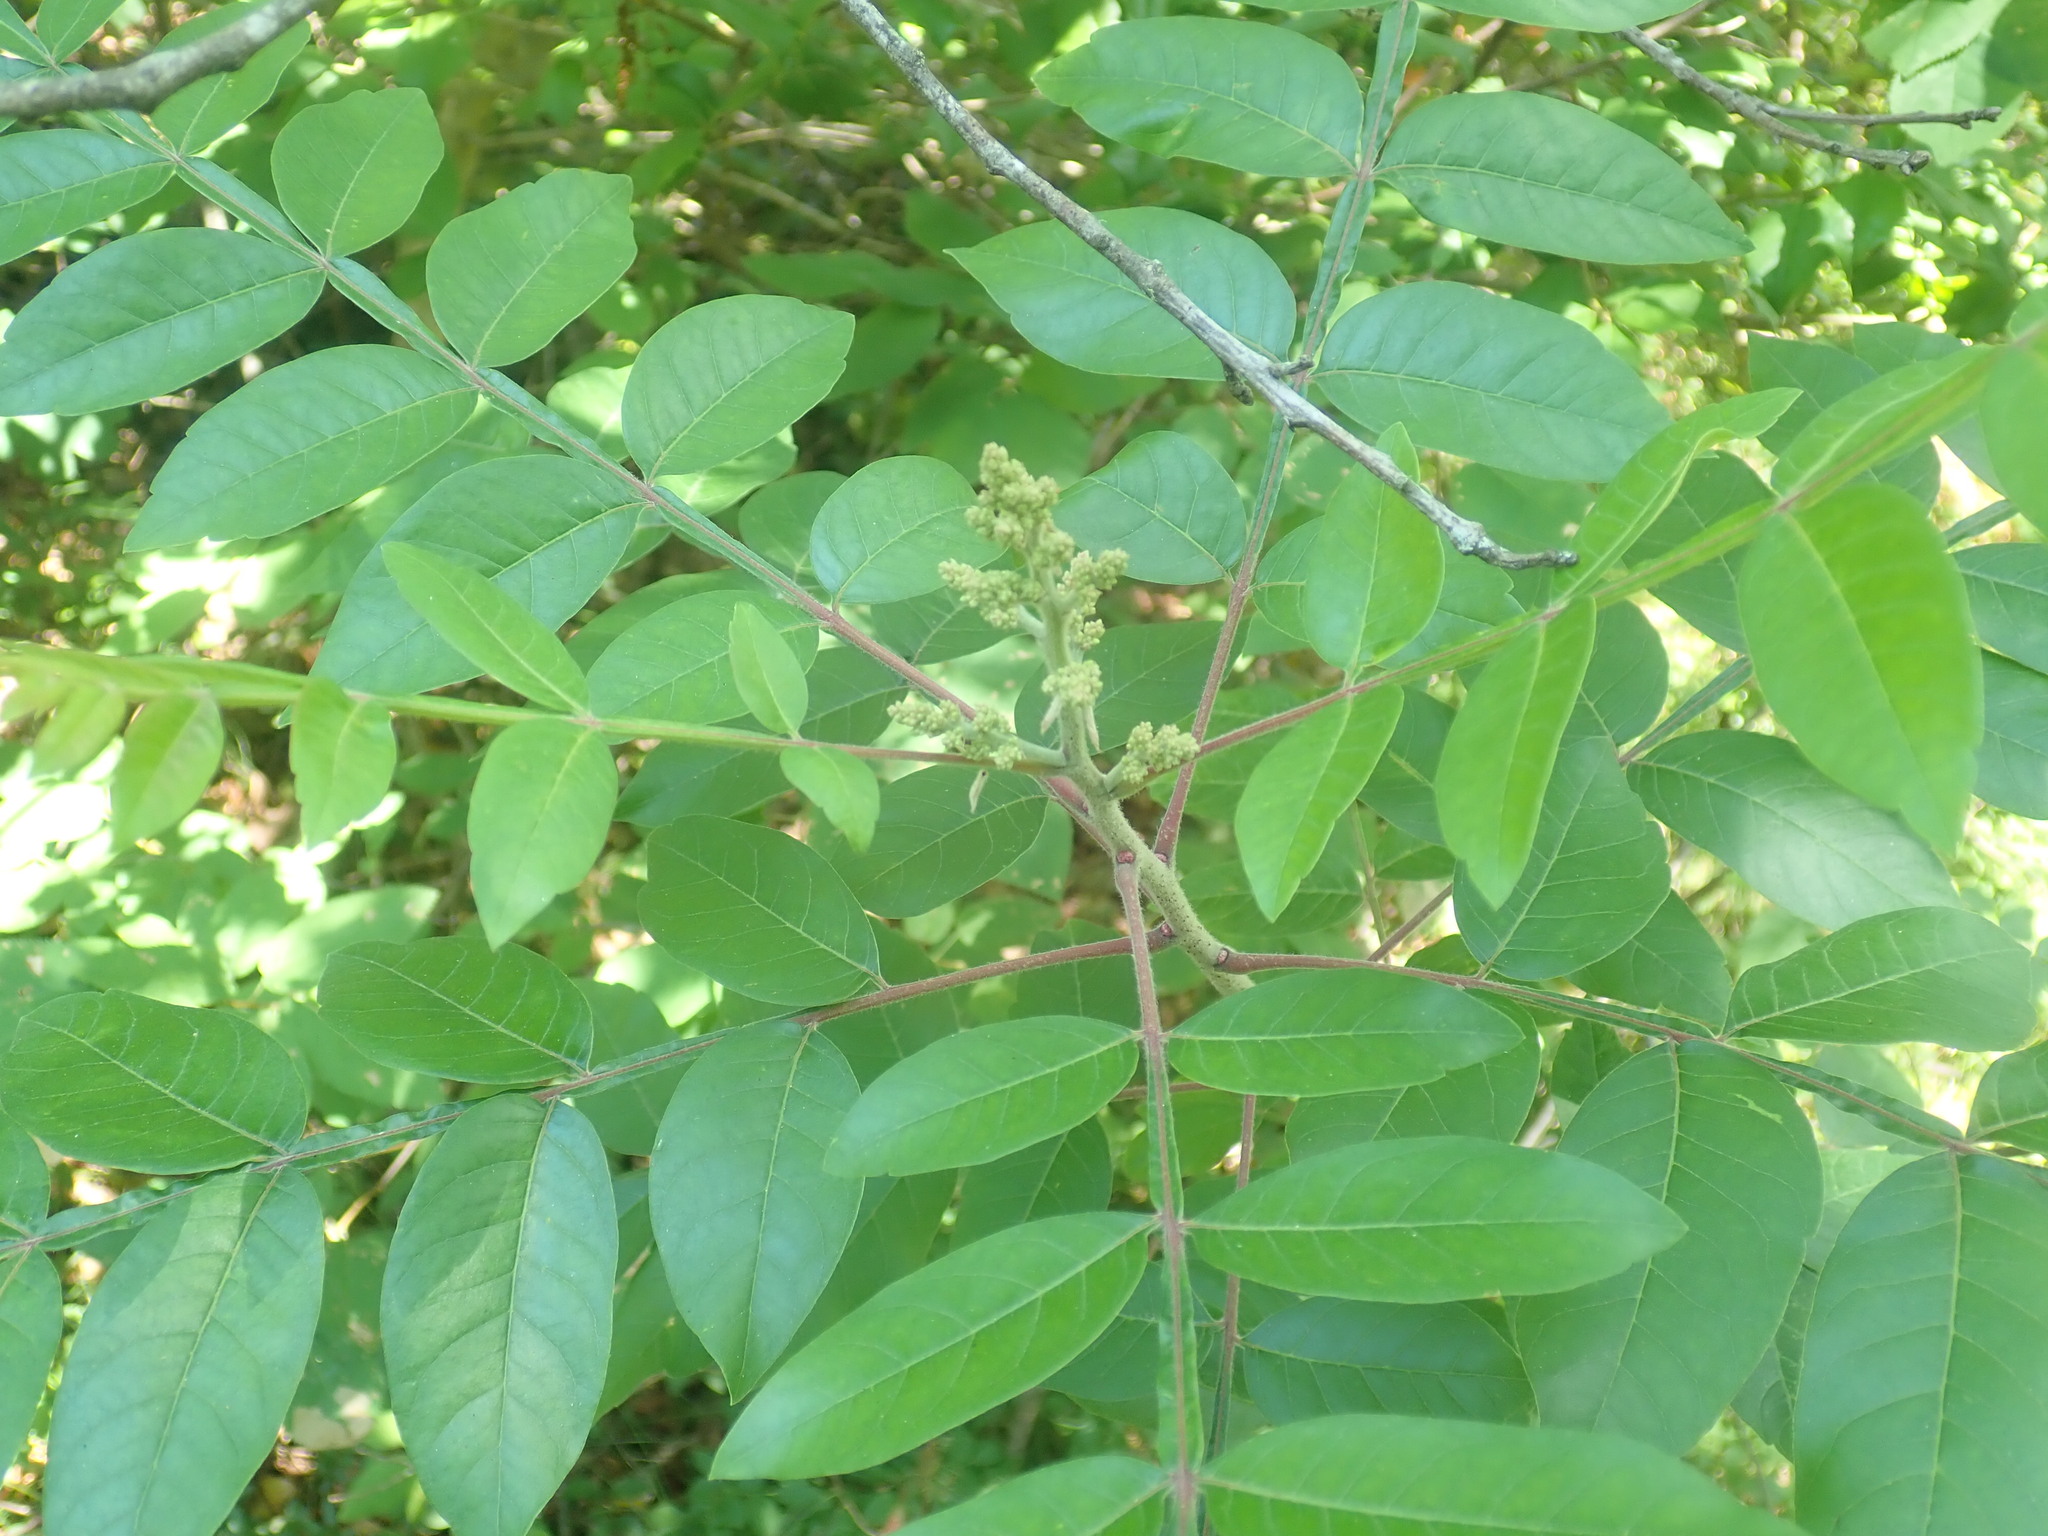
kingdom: Plantae
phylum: Tracheophyta
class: Magnoliopsida
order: Sapindales
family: Anacardiaceae
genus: Rhus
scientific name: Rhus copallina
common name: Shining sumac
